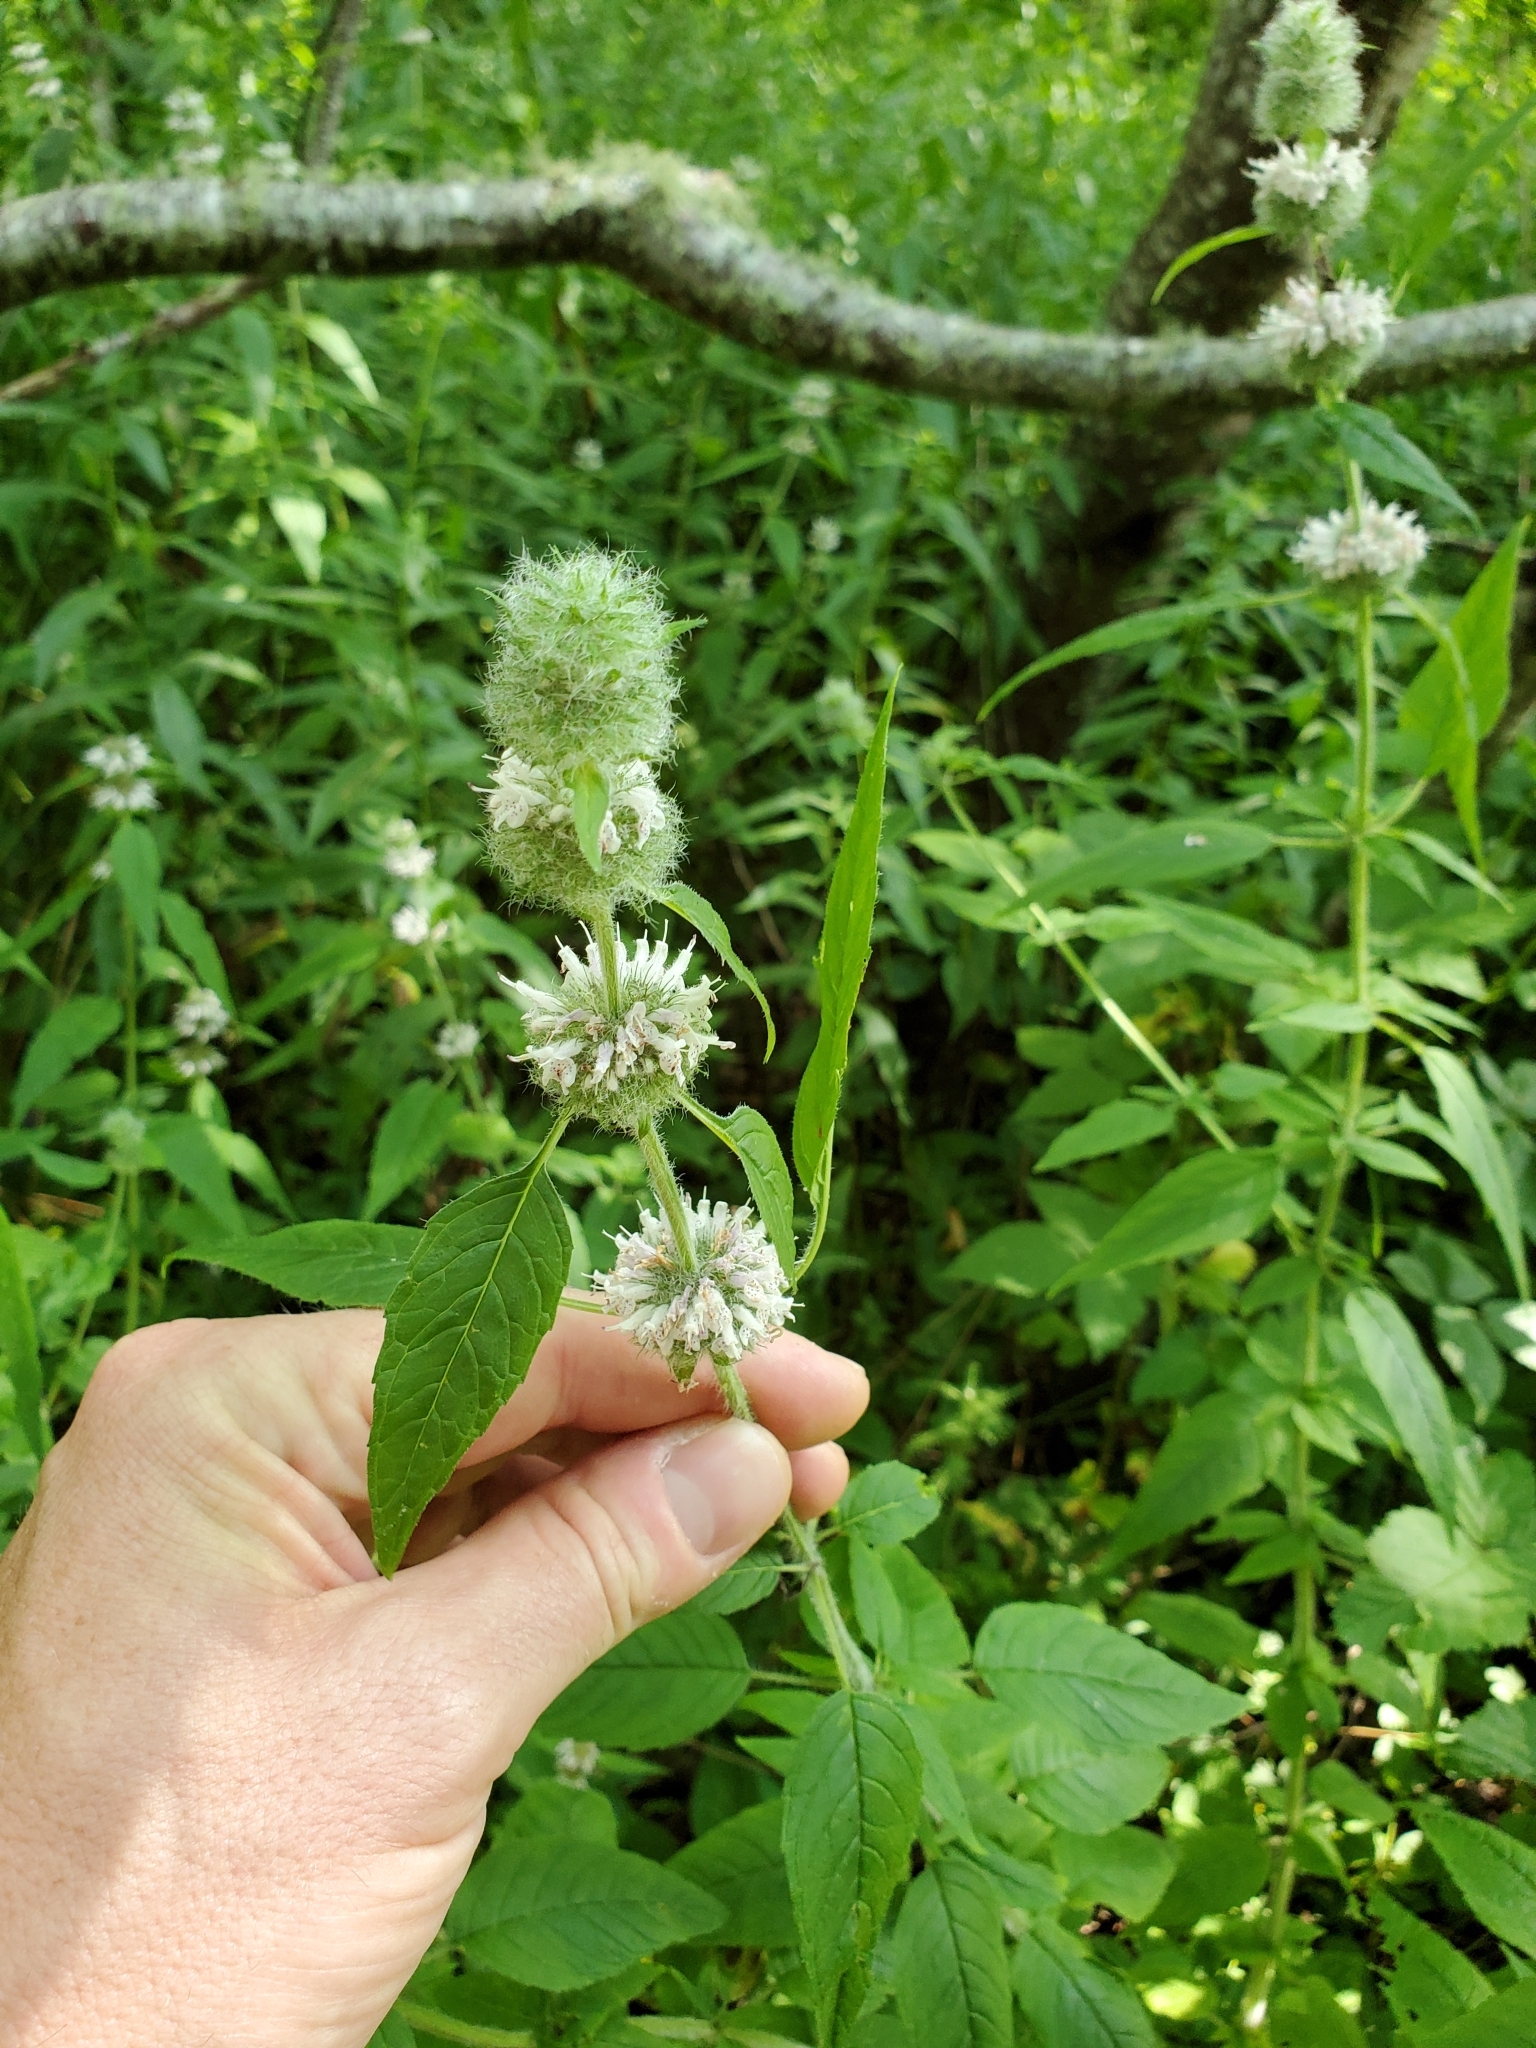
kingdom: Plantae
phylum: Tracheophyta
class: Magnoliopsida
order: Lamiales
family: Lamiaceae
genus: Blephilia
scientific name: Blephilia hirsuta
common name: Hairy blephilia
